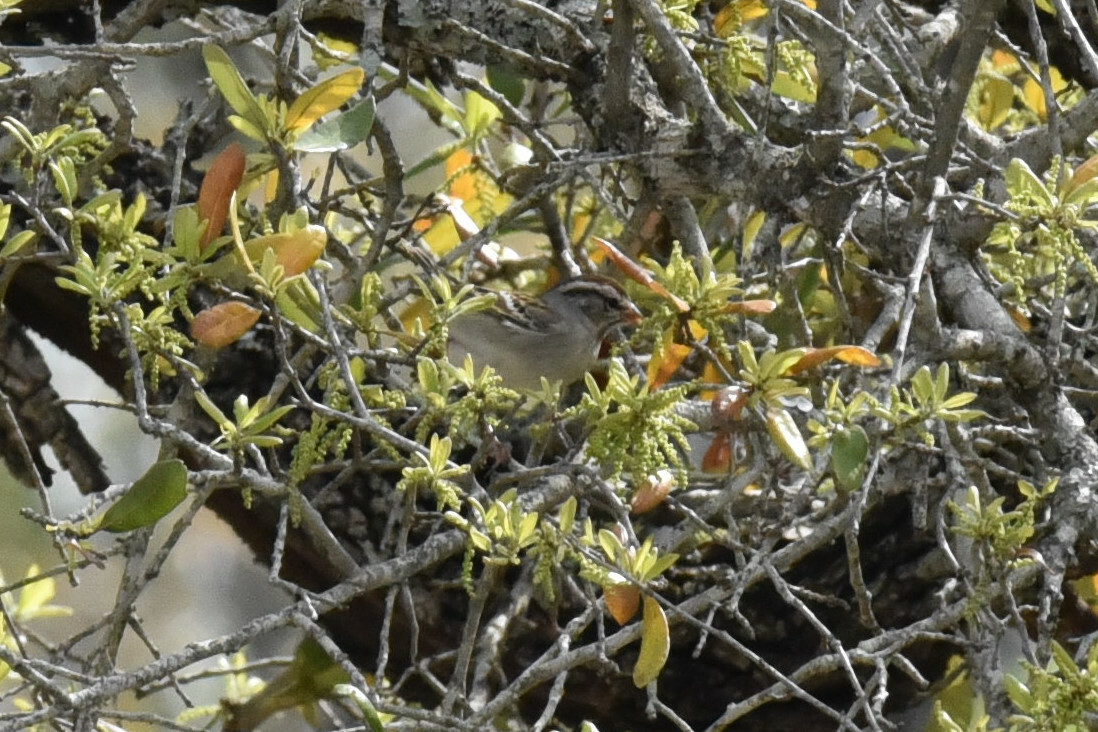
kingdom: Animalia
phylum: Chordata
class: Aves
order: Passeriformes
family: Passerellidae
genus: Spizella
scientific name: Spizella passerina
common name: Chipping sparrow
